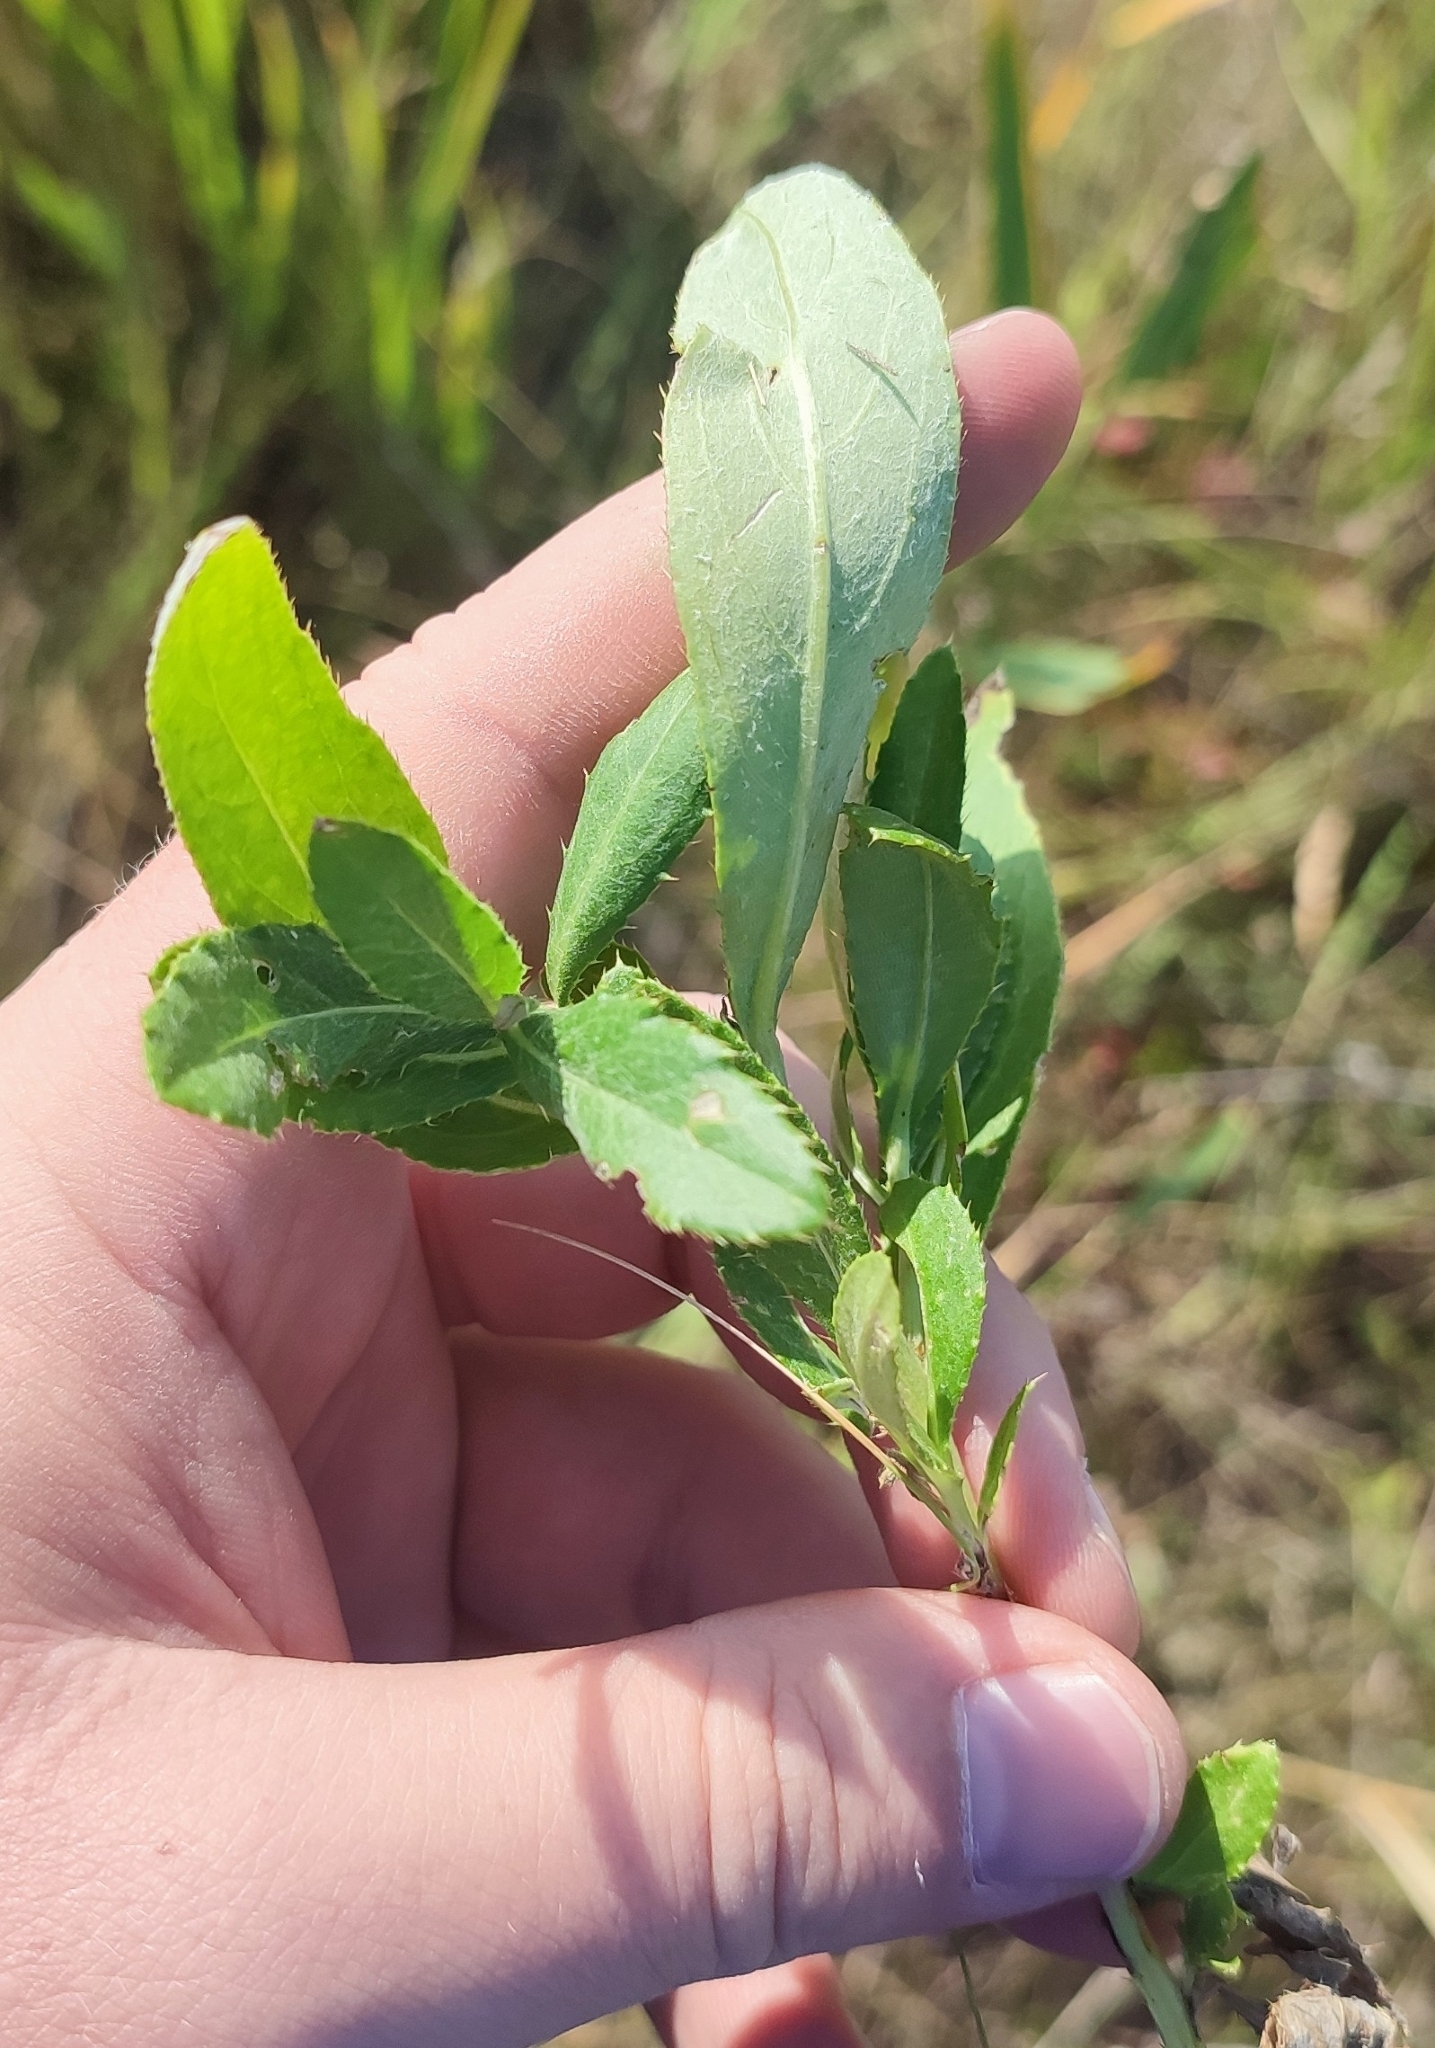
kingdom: Plantae
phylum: Tracheophyta
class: Magnoliopsida
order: Asterales
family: Asteraceae
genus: Cirsium
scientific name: Cirsium arvense
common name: Creeping thistle
